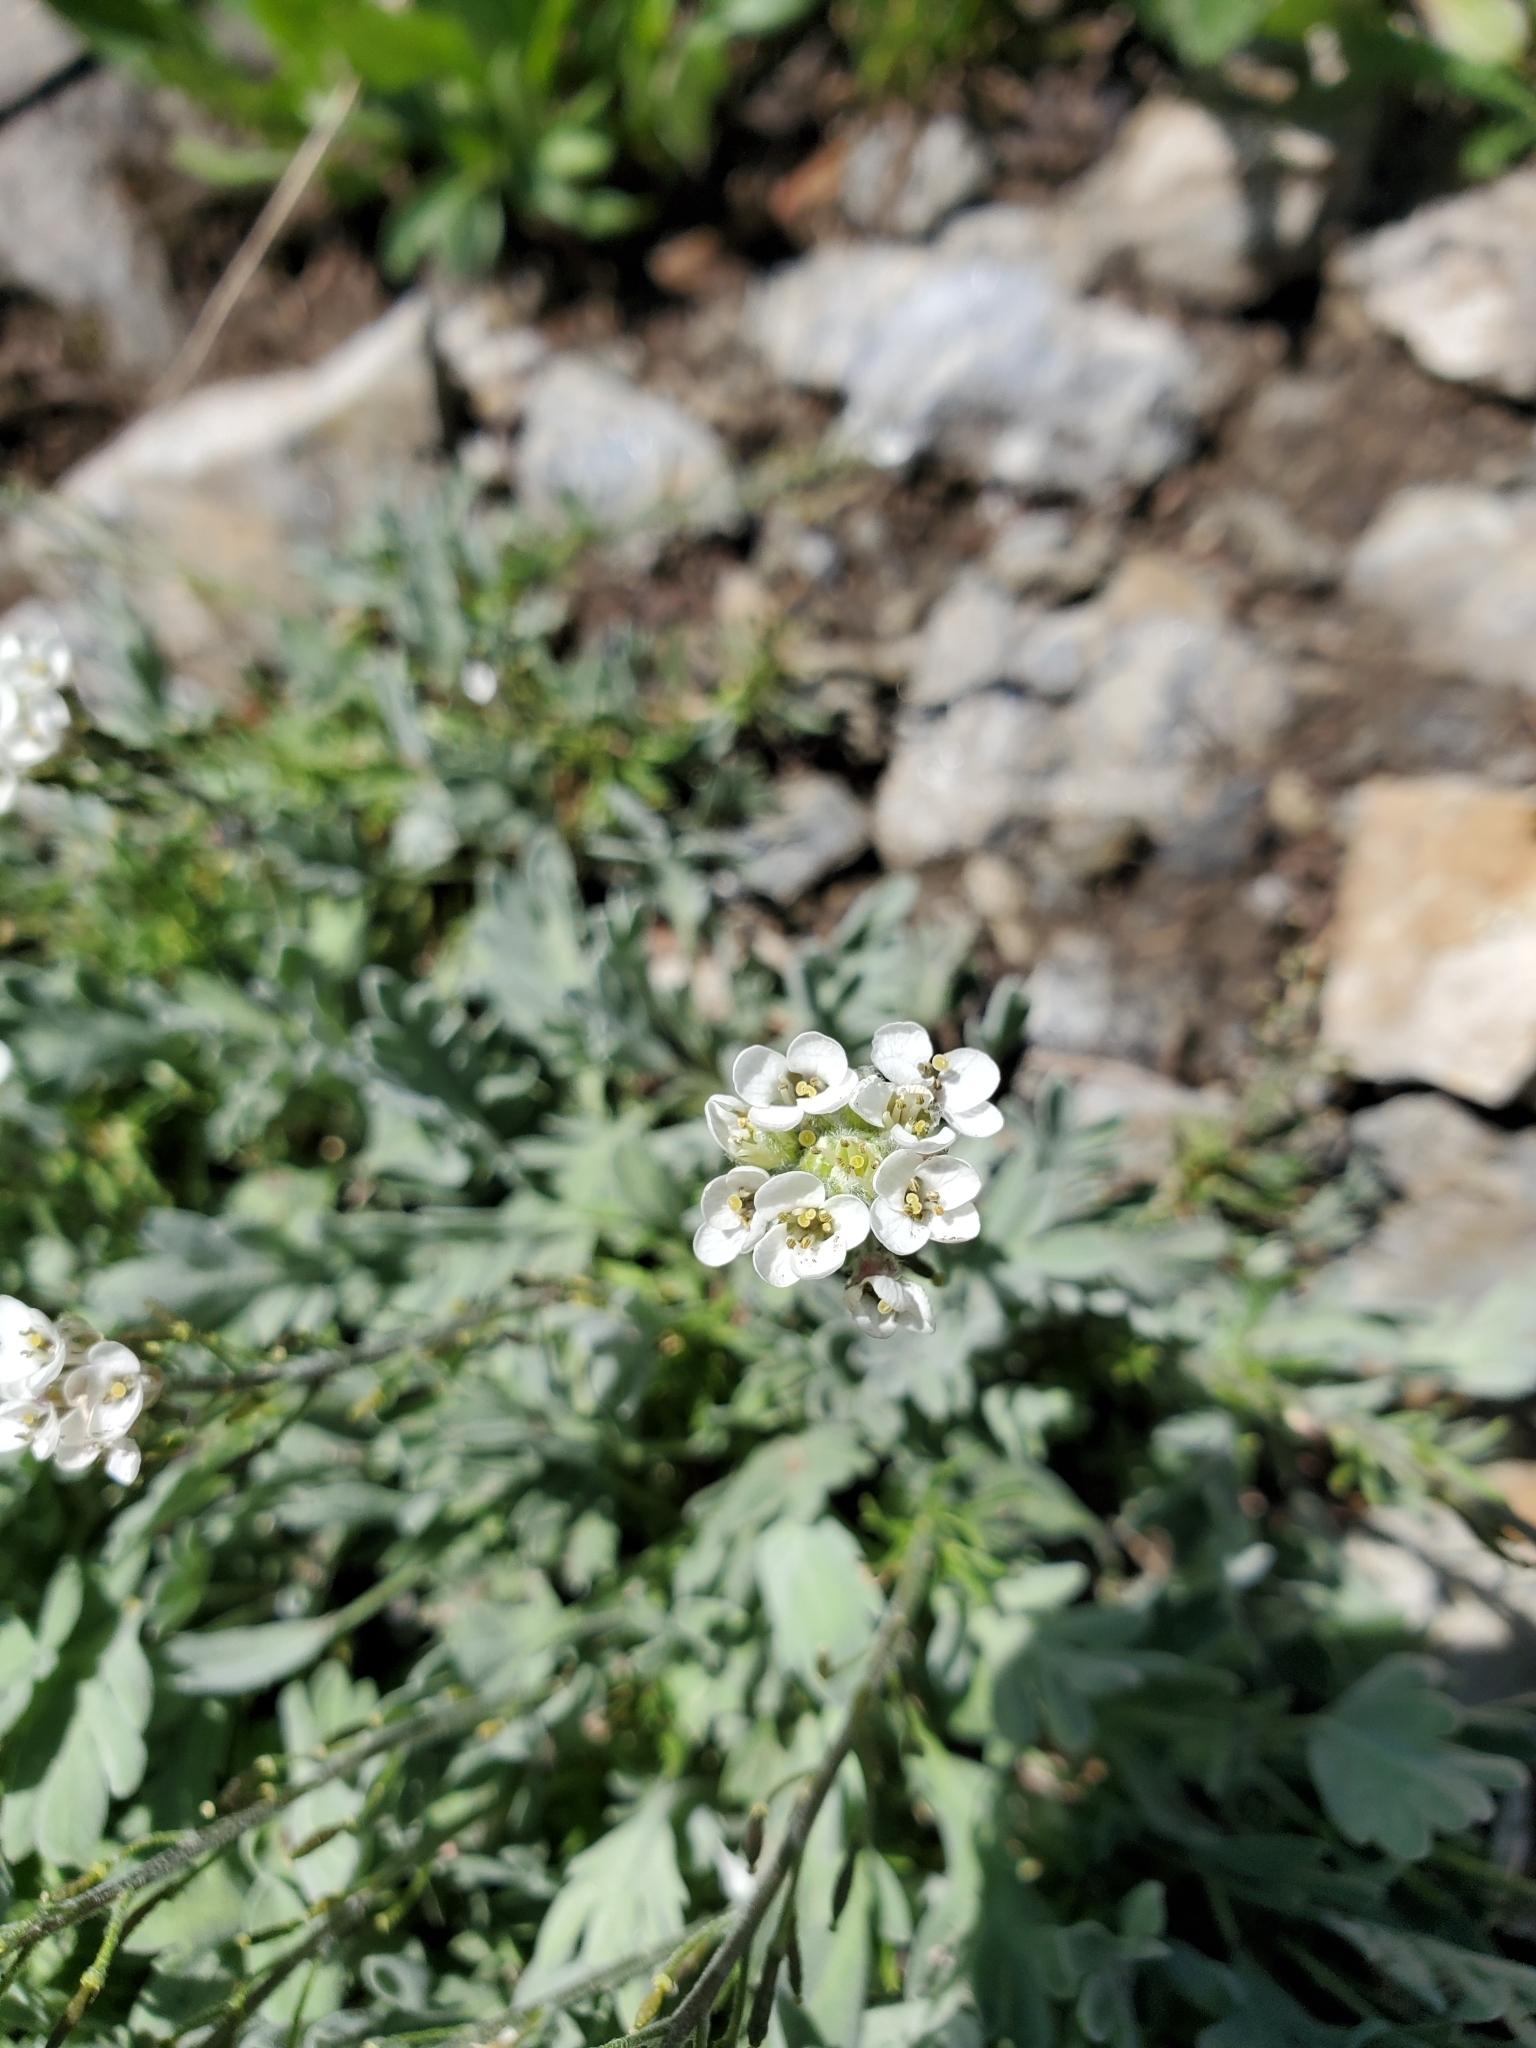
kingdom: Plantae
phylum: Tracheophyta
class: Magnoliopsida
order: Brassicales
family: Brassicaceae
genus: Smelowskia
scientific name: Smelowskia americana
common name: American false candytuft
